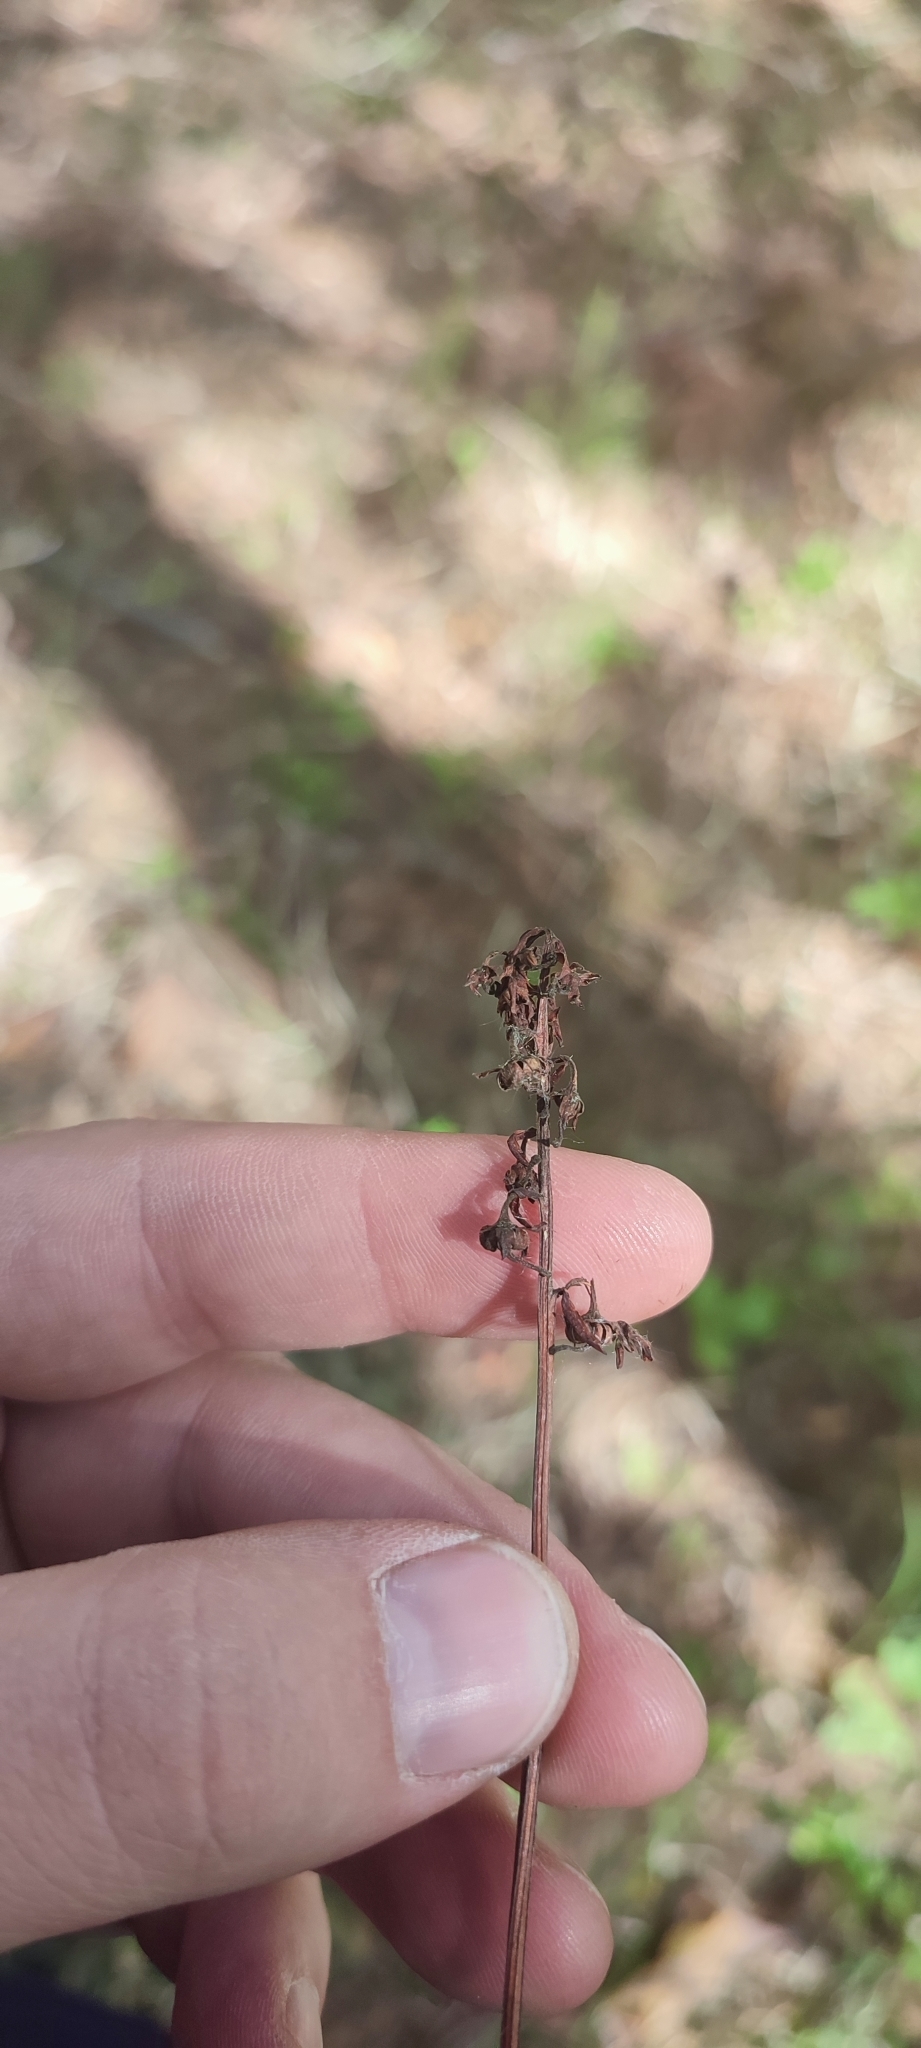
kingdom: Plantae
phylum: Tracheophyta
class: Magnoliopsida
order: Ericales
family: Ericaceae
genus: Pyrola
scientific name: Pyrola rotundifolia
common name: Round-leaved wintergreen
